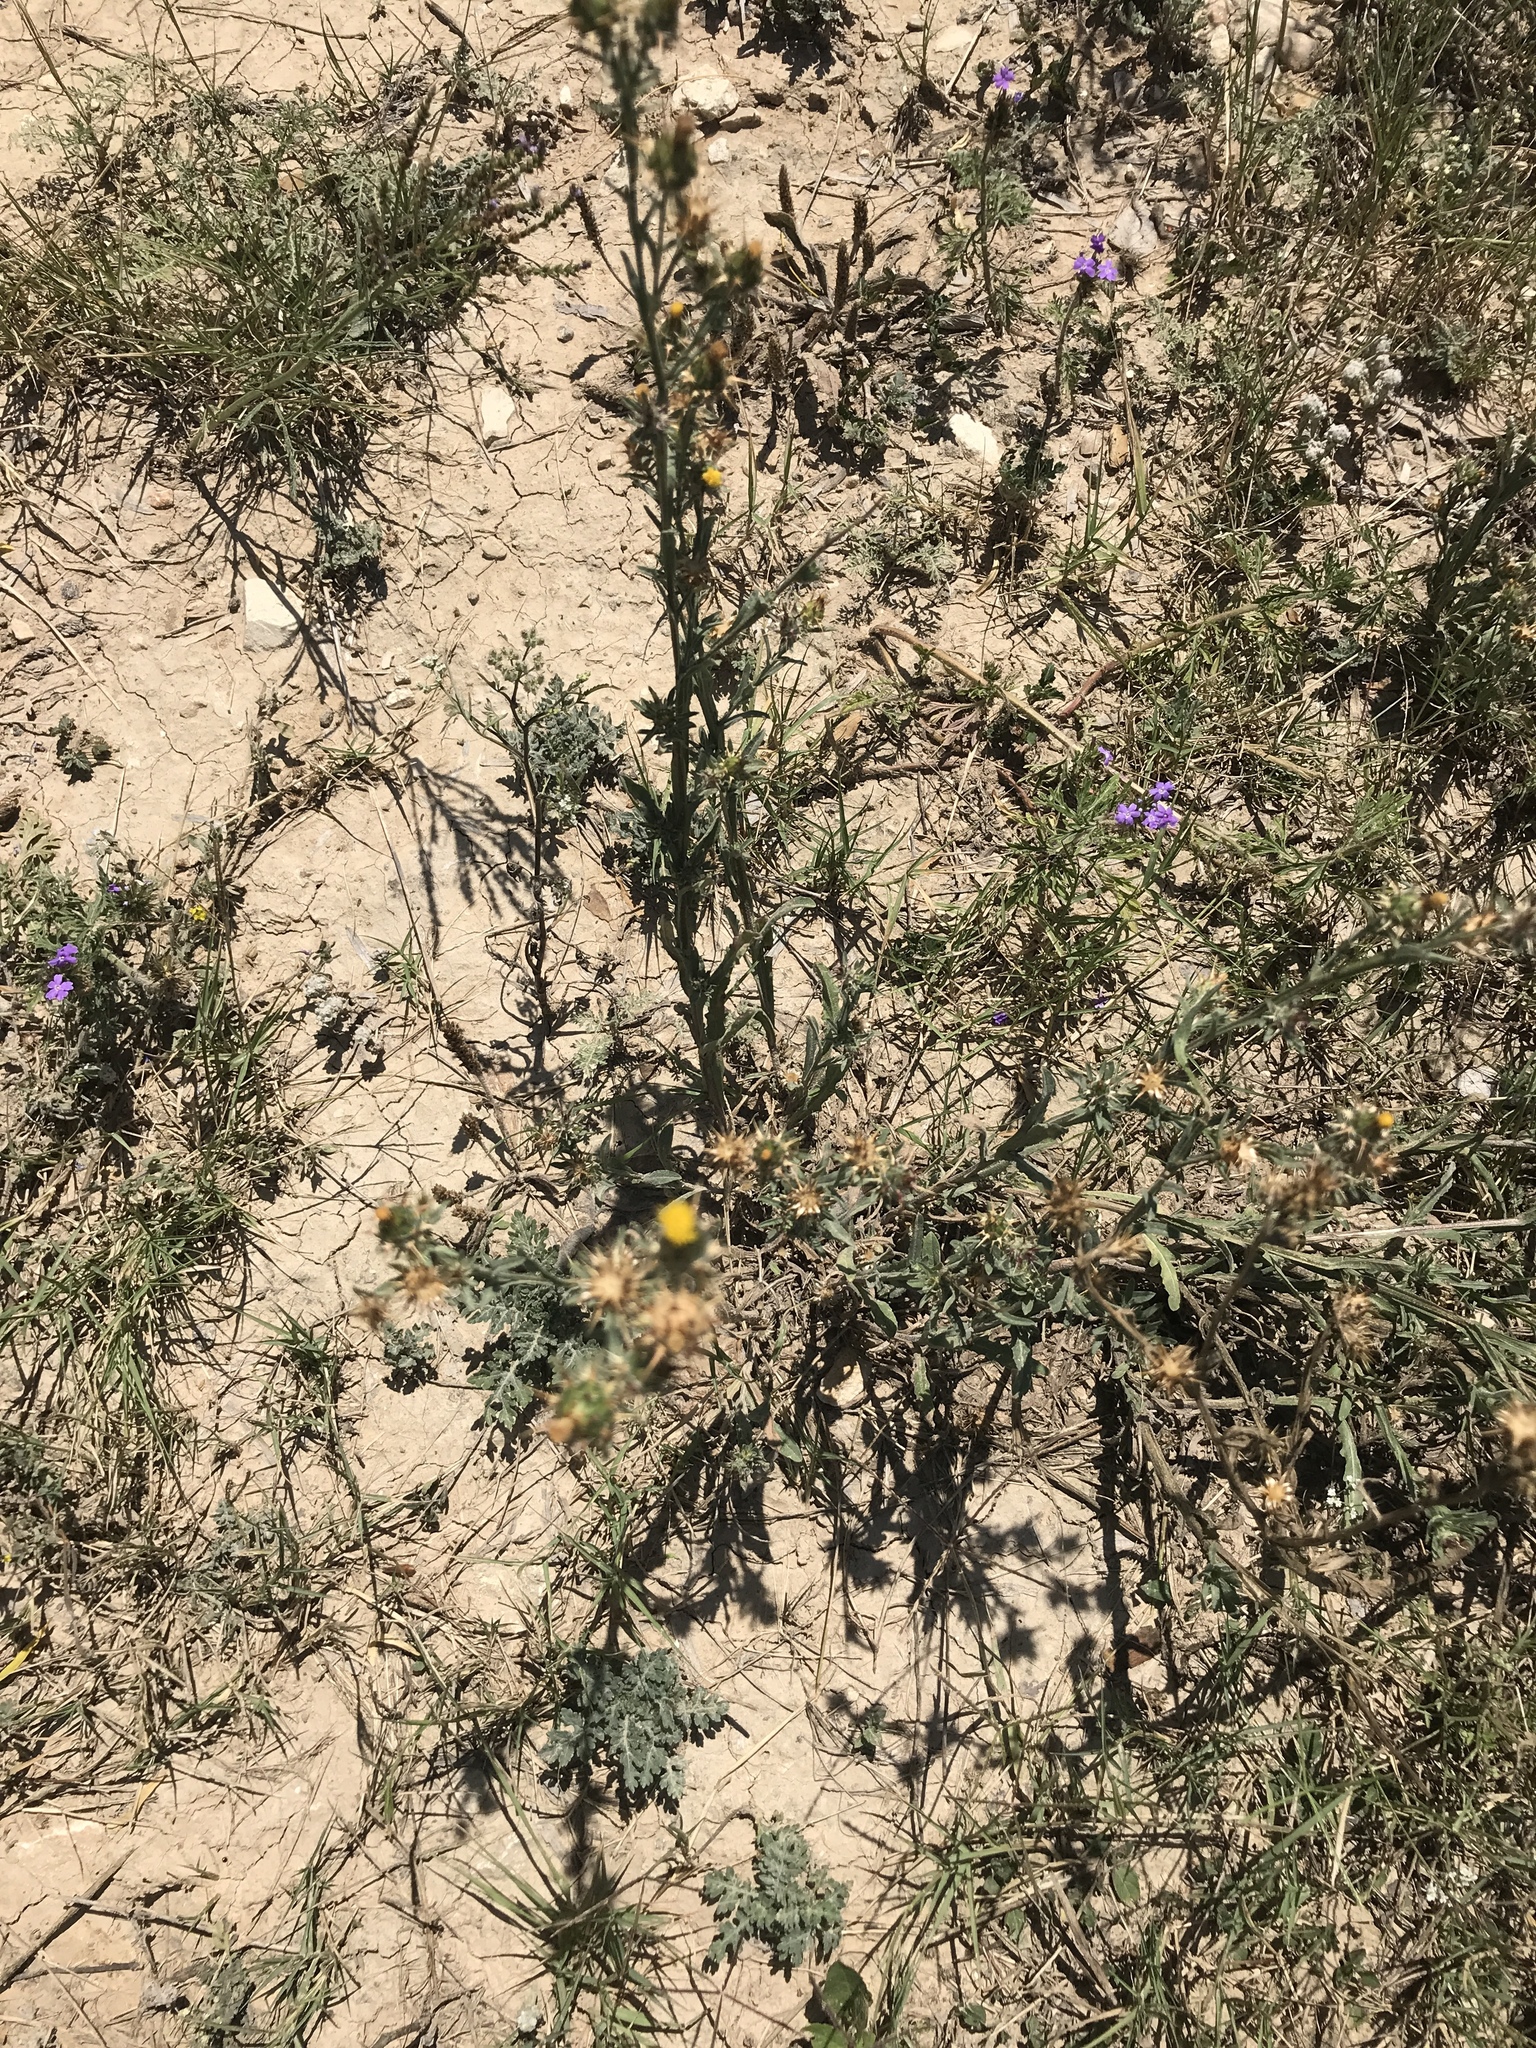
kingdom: Plantae
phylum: Tracheophyta
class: Magnoliopsida
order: Asterales
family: Asteraceae
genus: Centaurea
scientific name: Centaurea melitensis
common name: Maltese star-thistle
